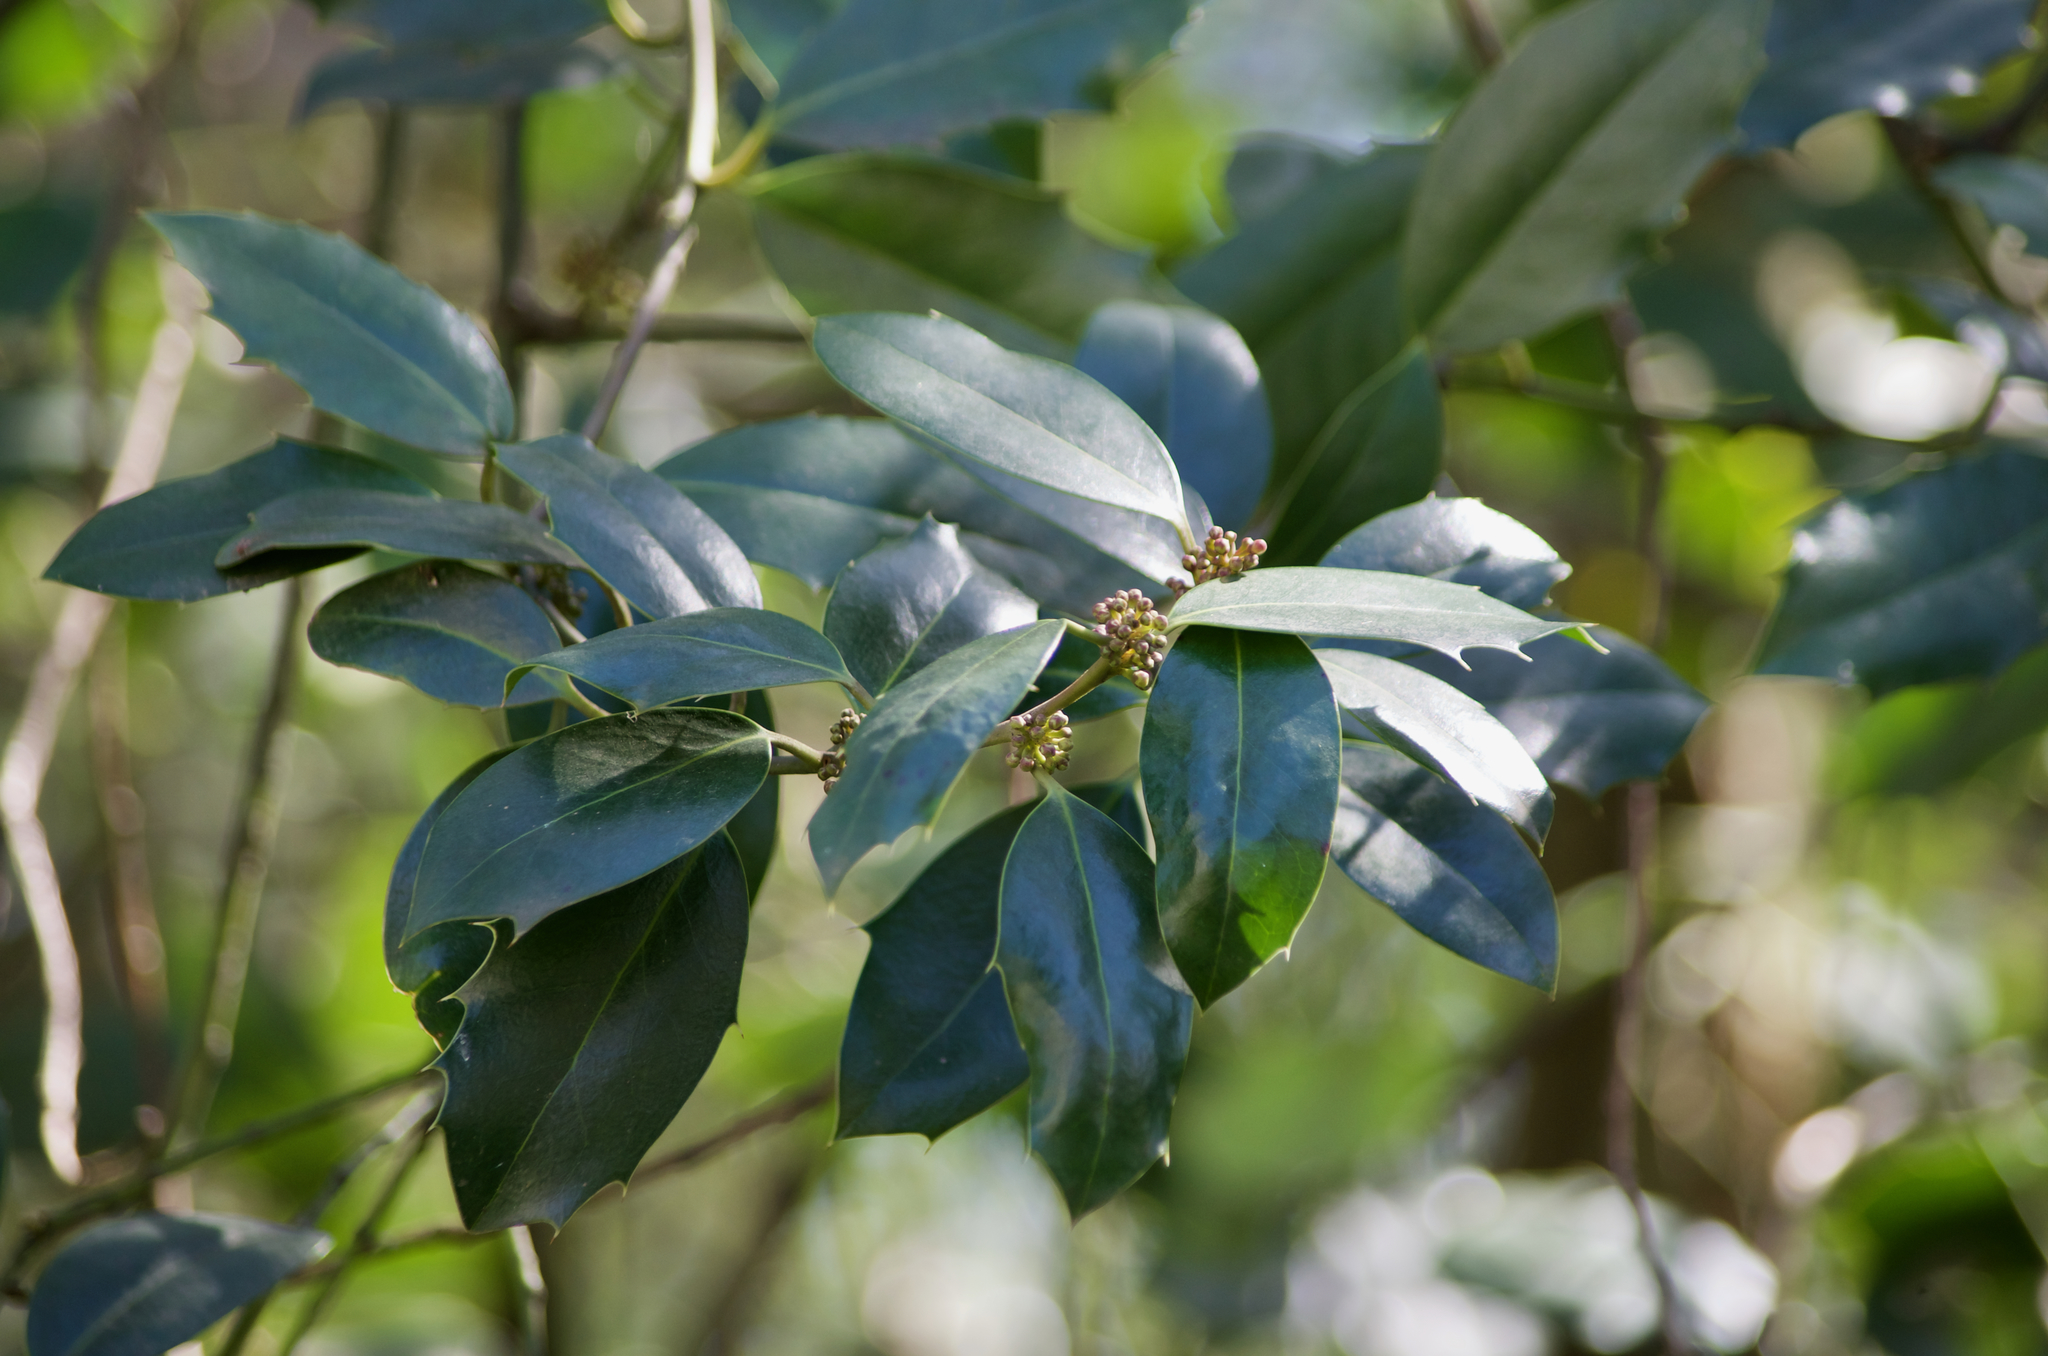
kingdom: Plantae
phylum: Tracheophyta
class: Magnoliopsida
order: Aquifoliales
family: Aquifoliaceae
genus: Ilex
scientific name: Ilex aquifolium
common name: English holly
